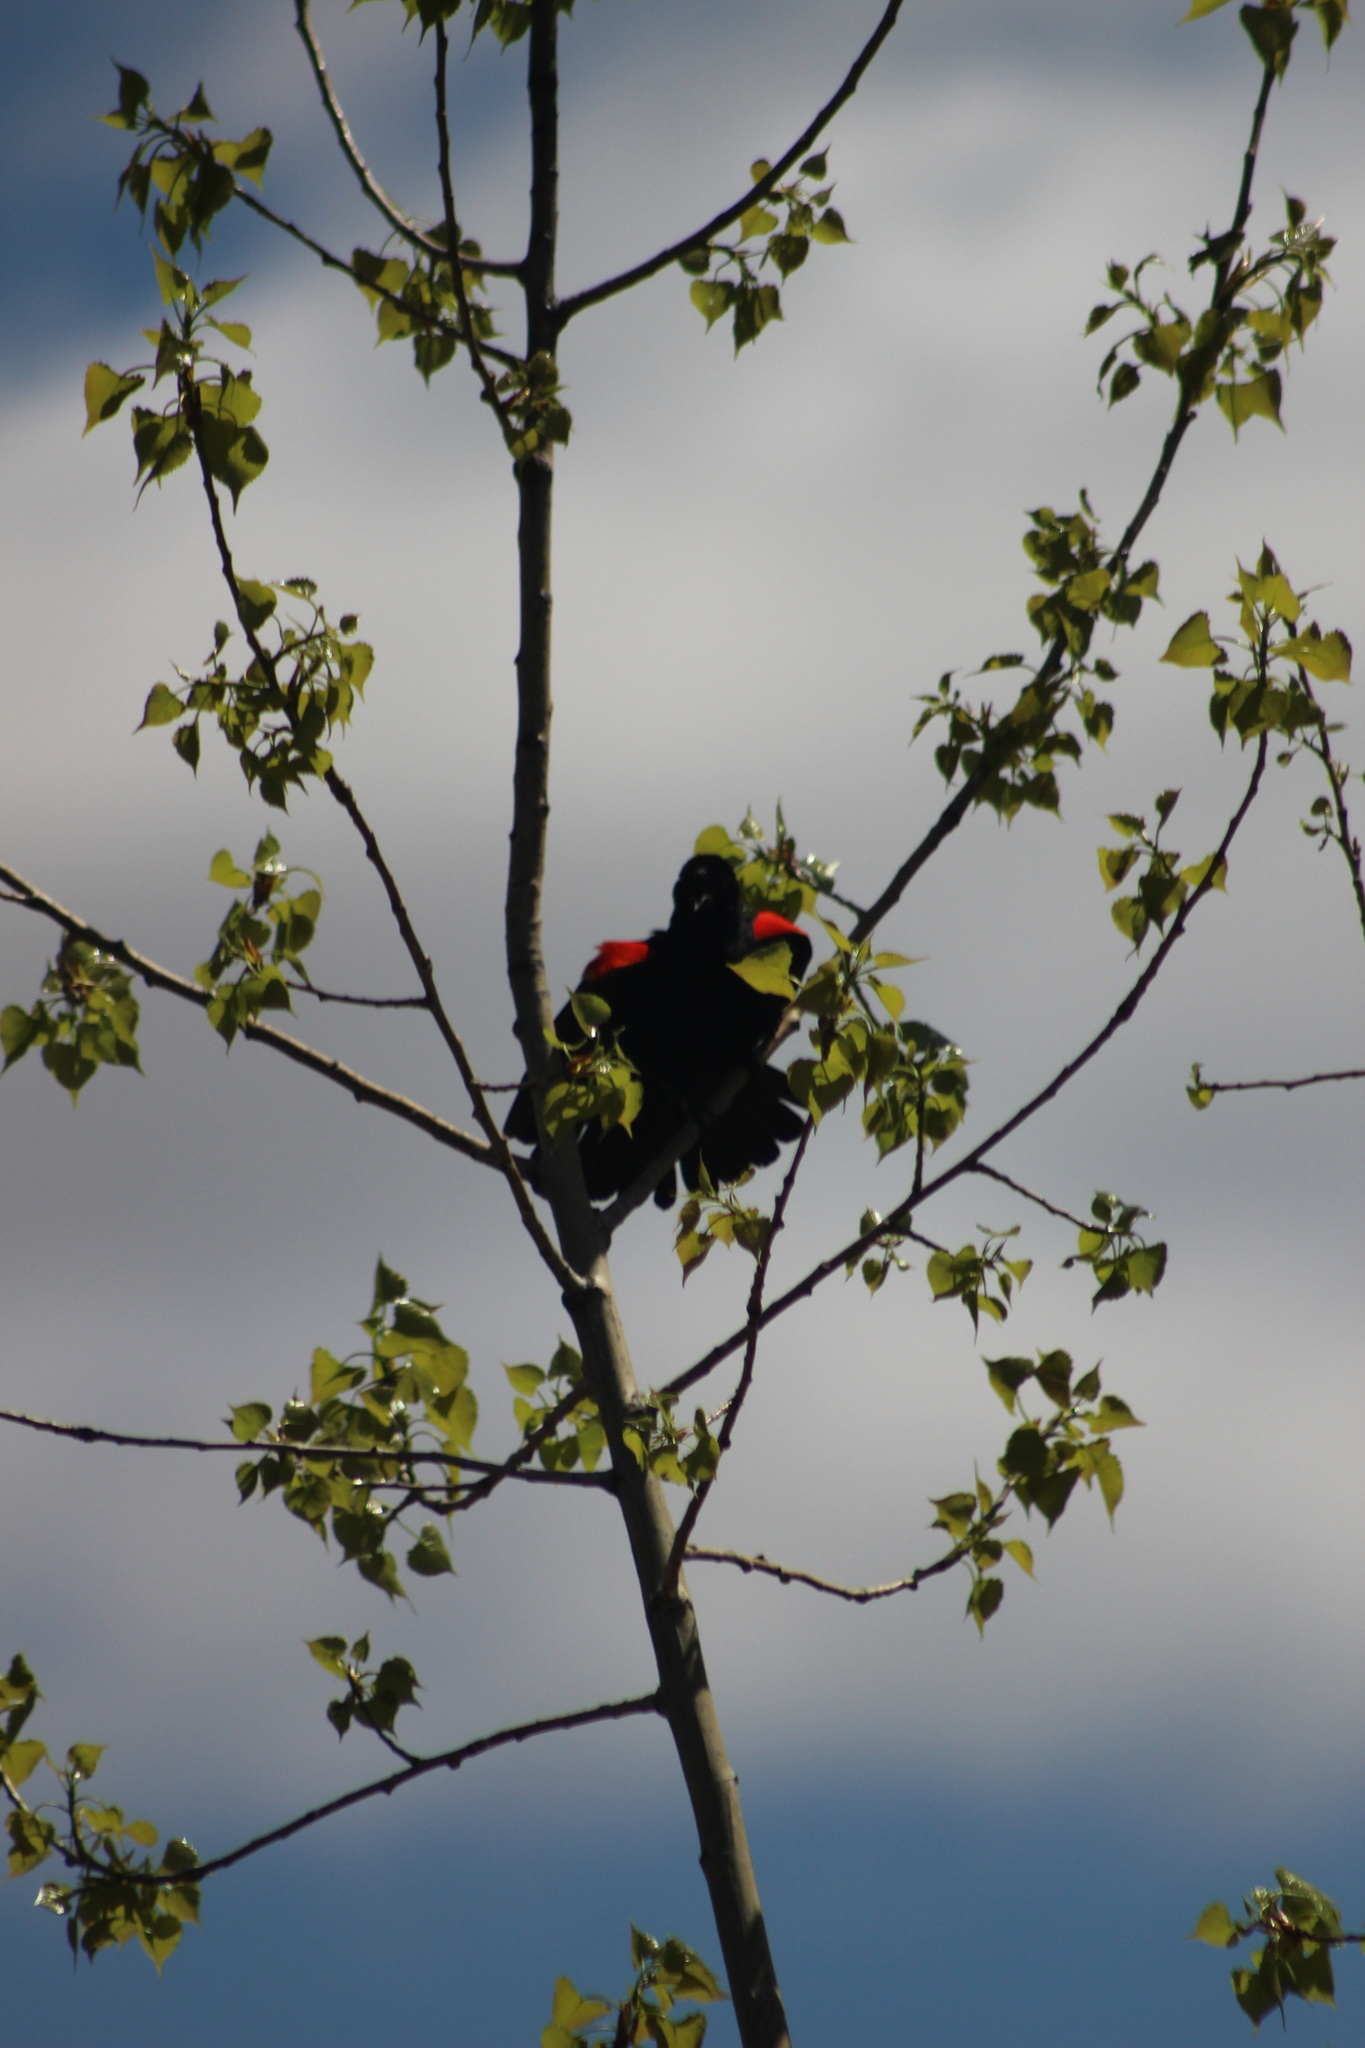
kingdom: Animalia
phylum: Chordata
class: Aves
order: Passeriformes
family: Icteridae
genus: Agelaius
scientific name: Agelaius phoeniceus
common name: Red-winged blackbird
